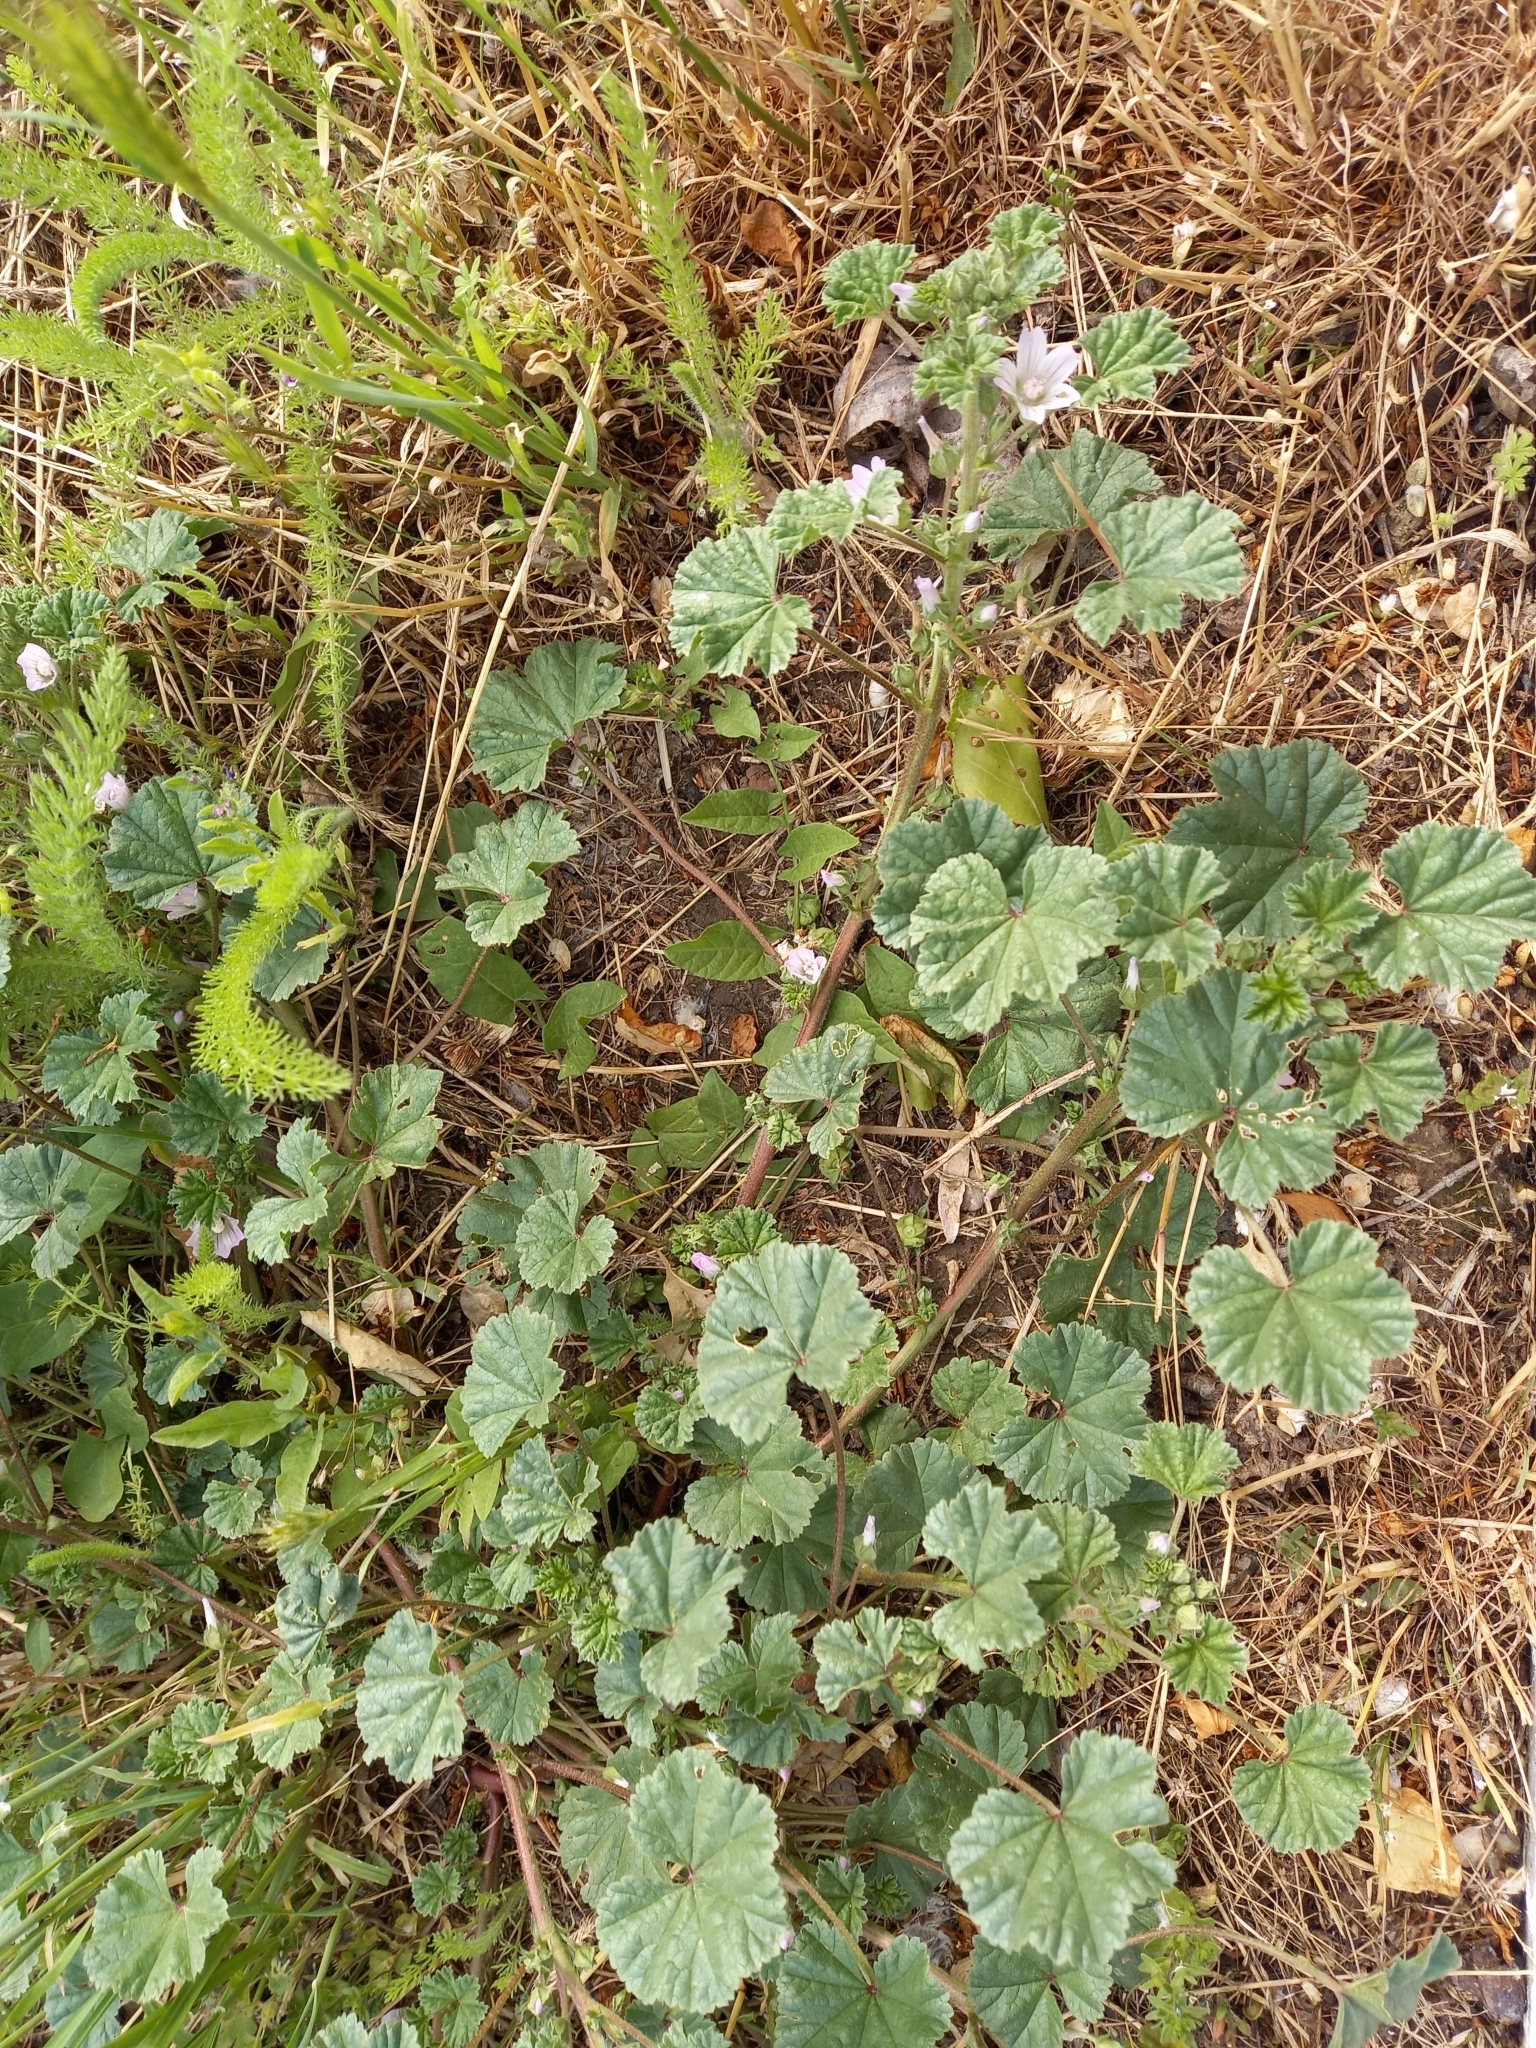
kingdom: Plantae
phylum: Tracheophyta
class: Magnoliopsida
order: Malvales
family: Malvaceae
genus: Malva
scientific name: Malva neglecta
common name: Common mallow
